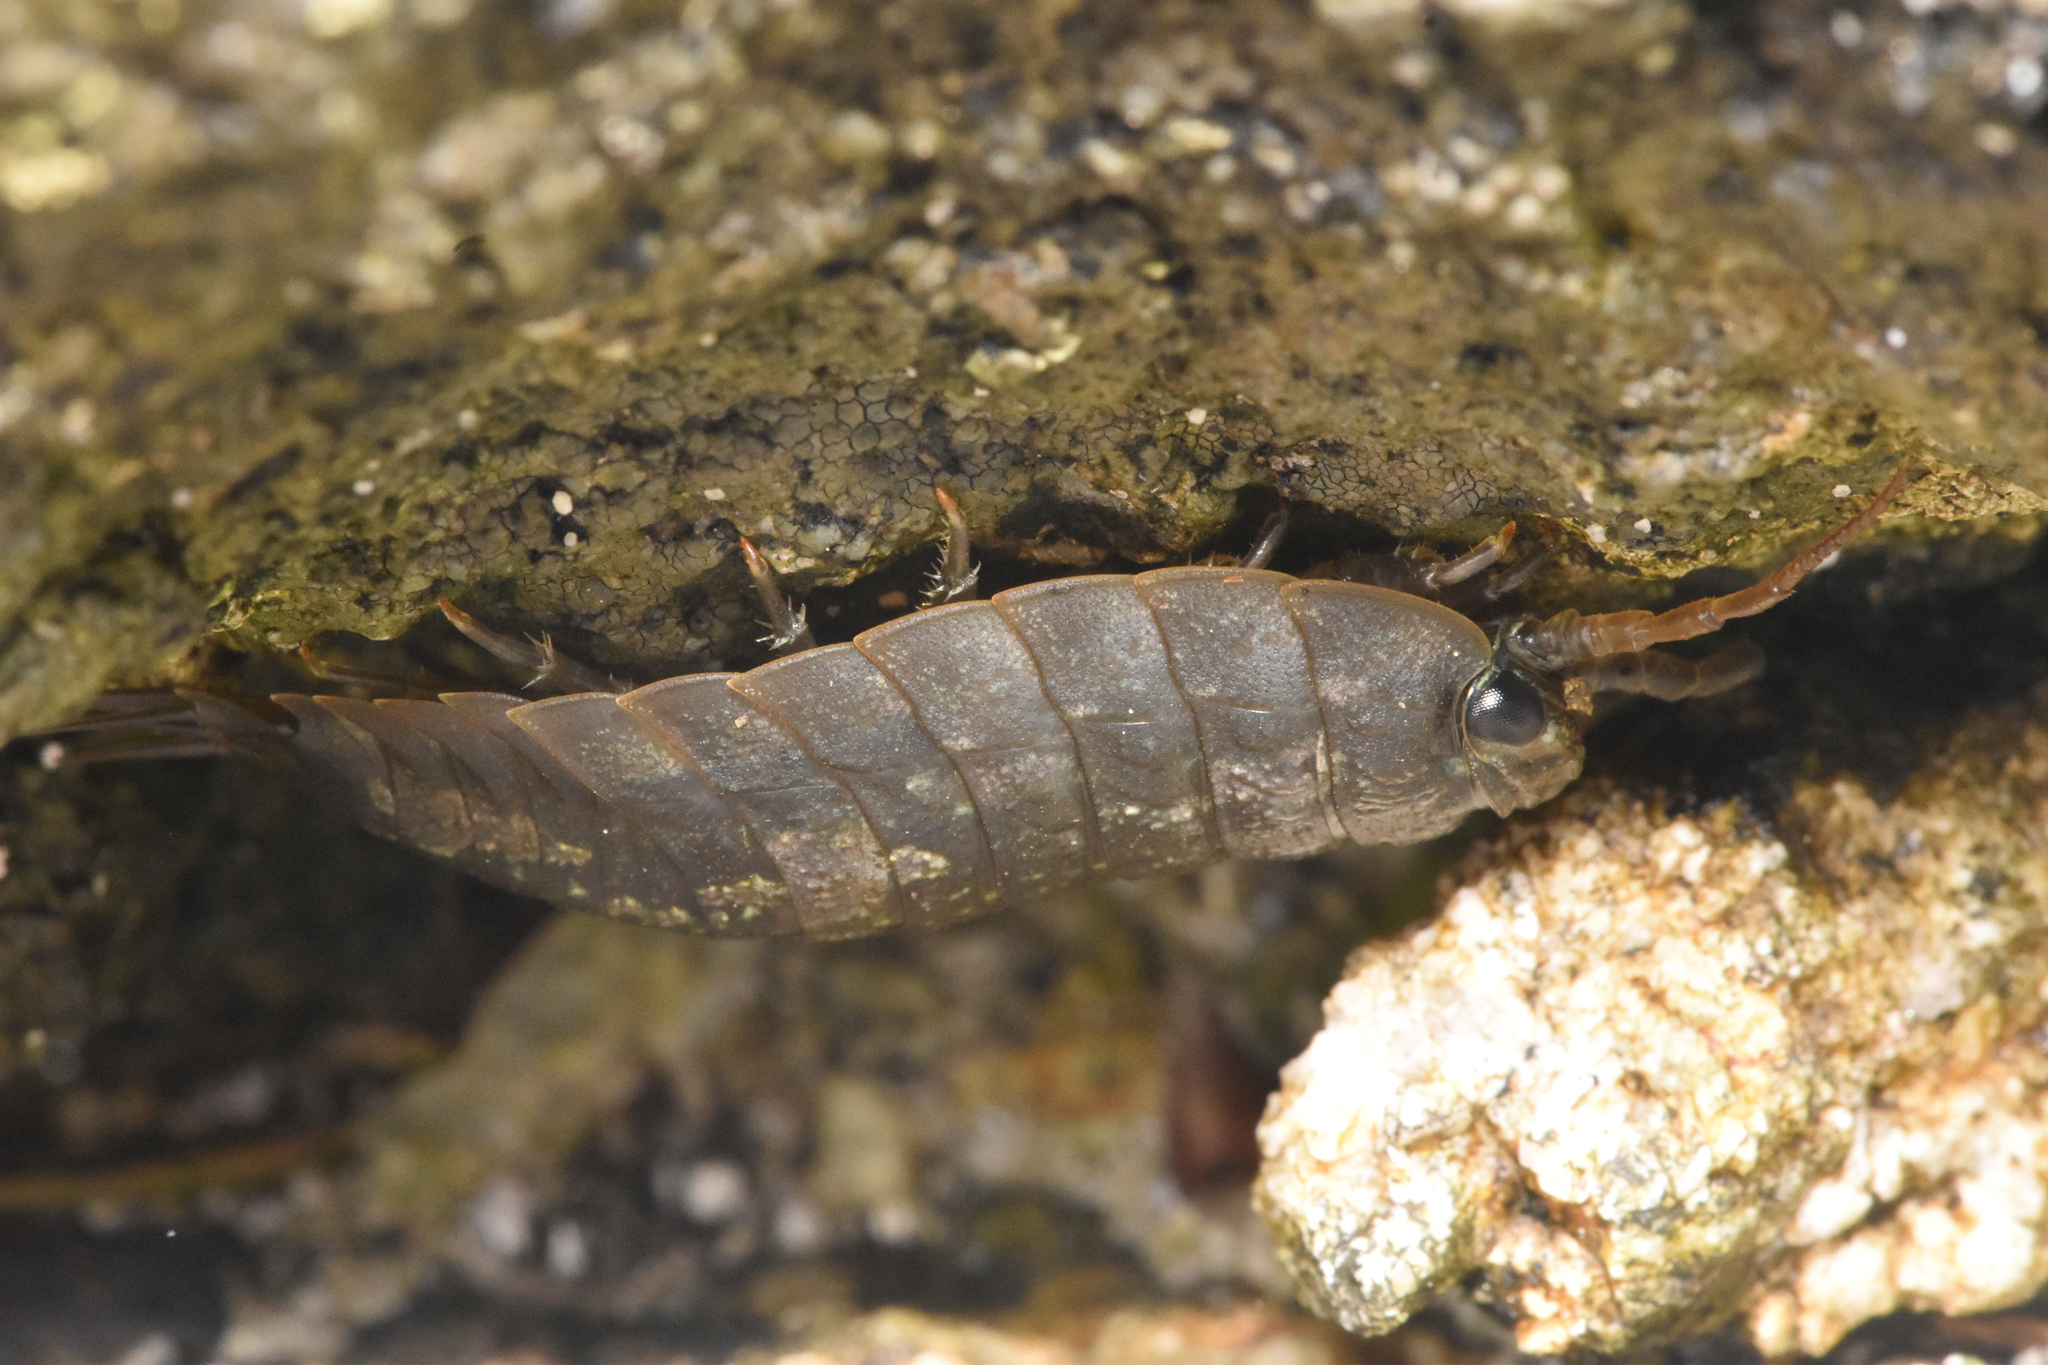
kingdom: Animalia
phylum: Arthropoda
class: Malacostraca
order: Isopoda
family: Ligiidae
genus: Ligia
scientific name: Ligia pallasii
